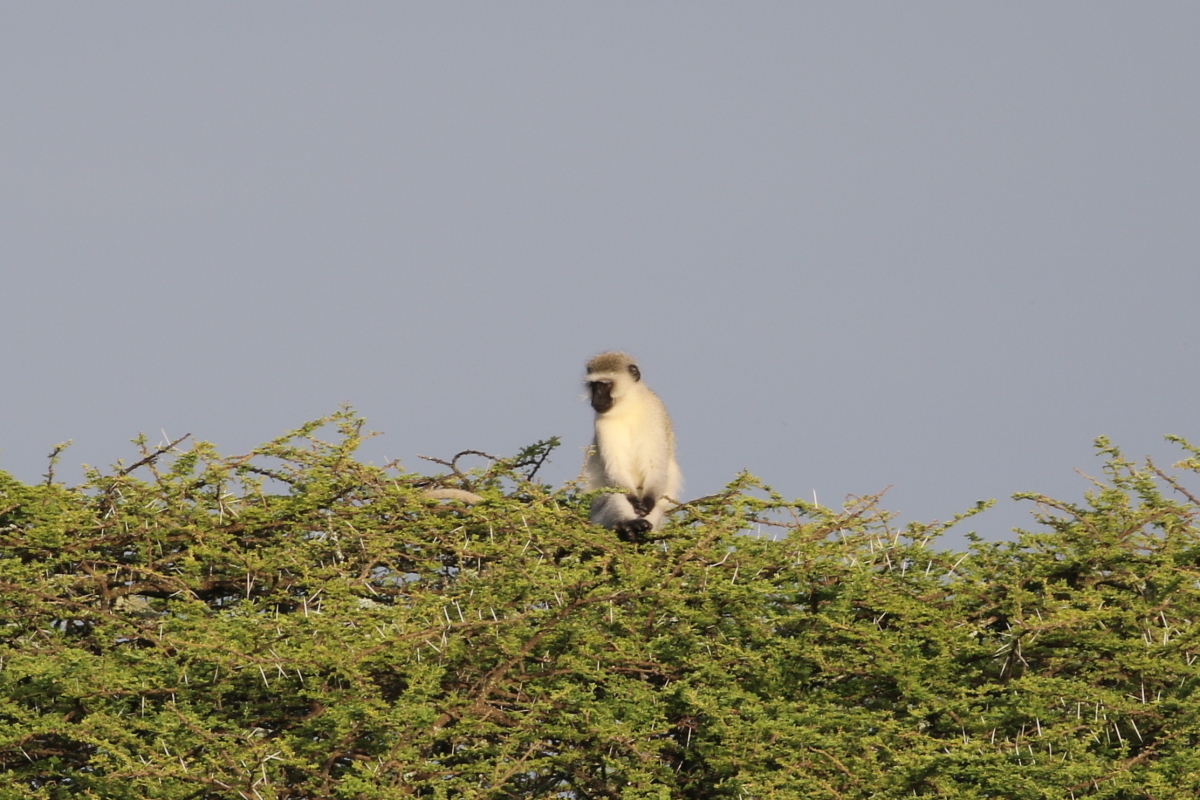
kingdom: Animalia
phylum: Chordata
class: Mammalia
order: Primates
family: Cercopithecidae
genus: Chlorocebus
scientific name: Chlorocebus pygerythrus
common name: Vervet monkey
